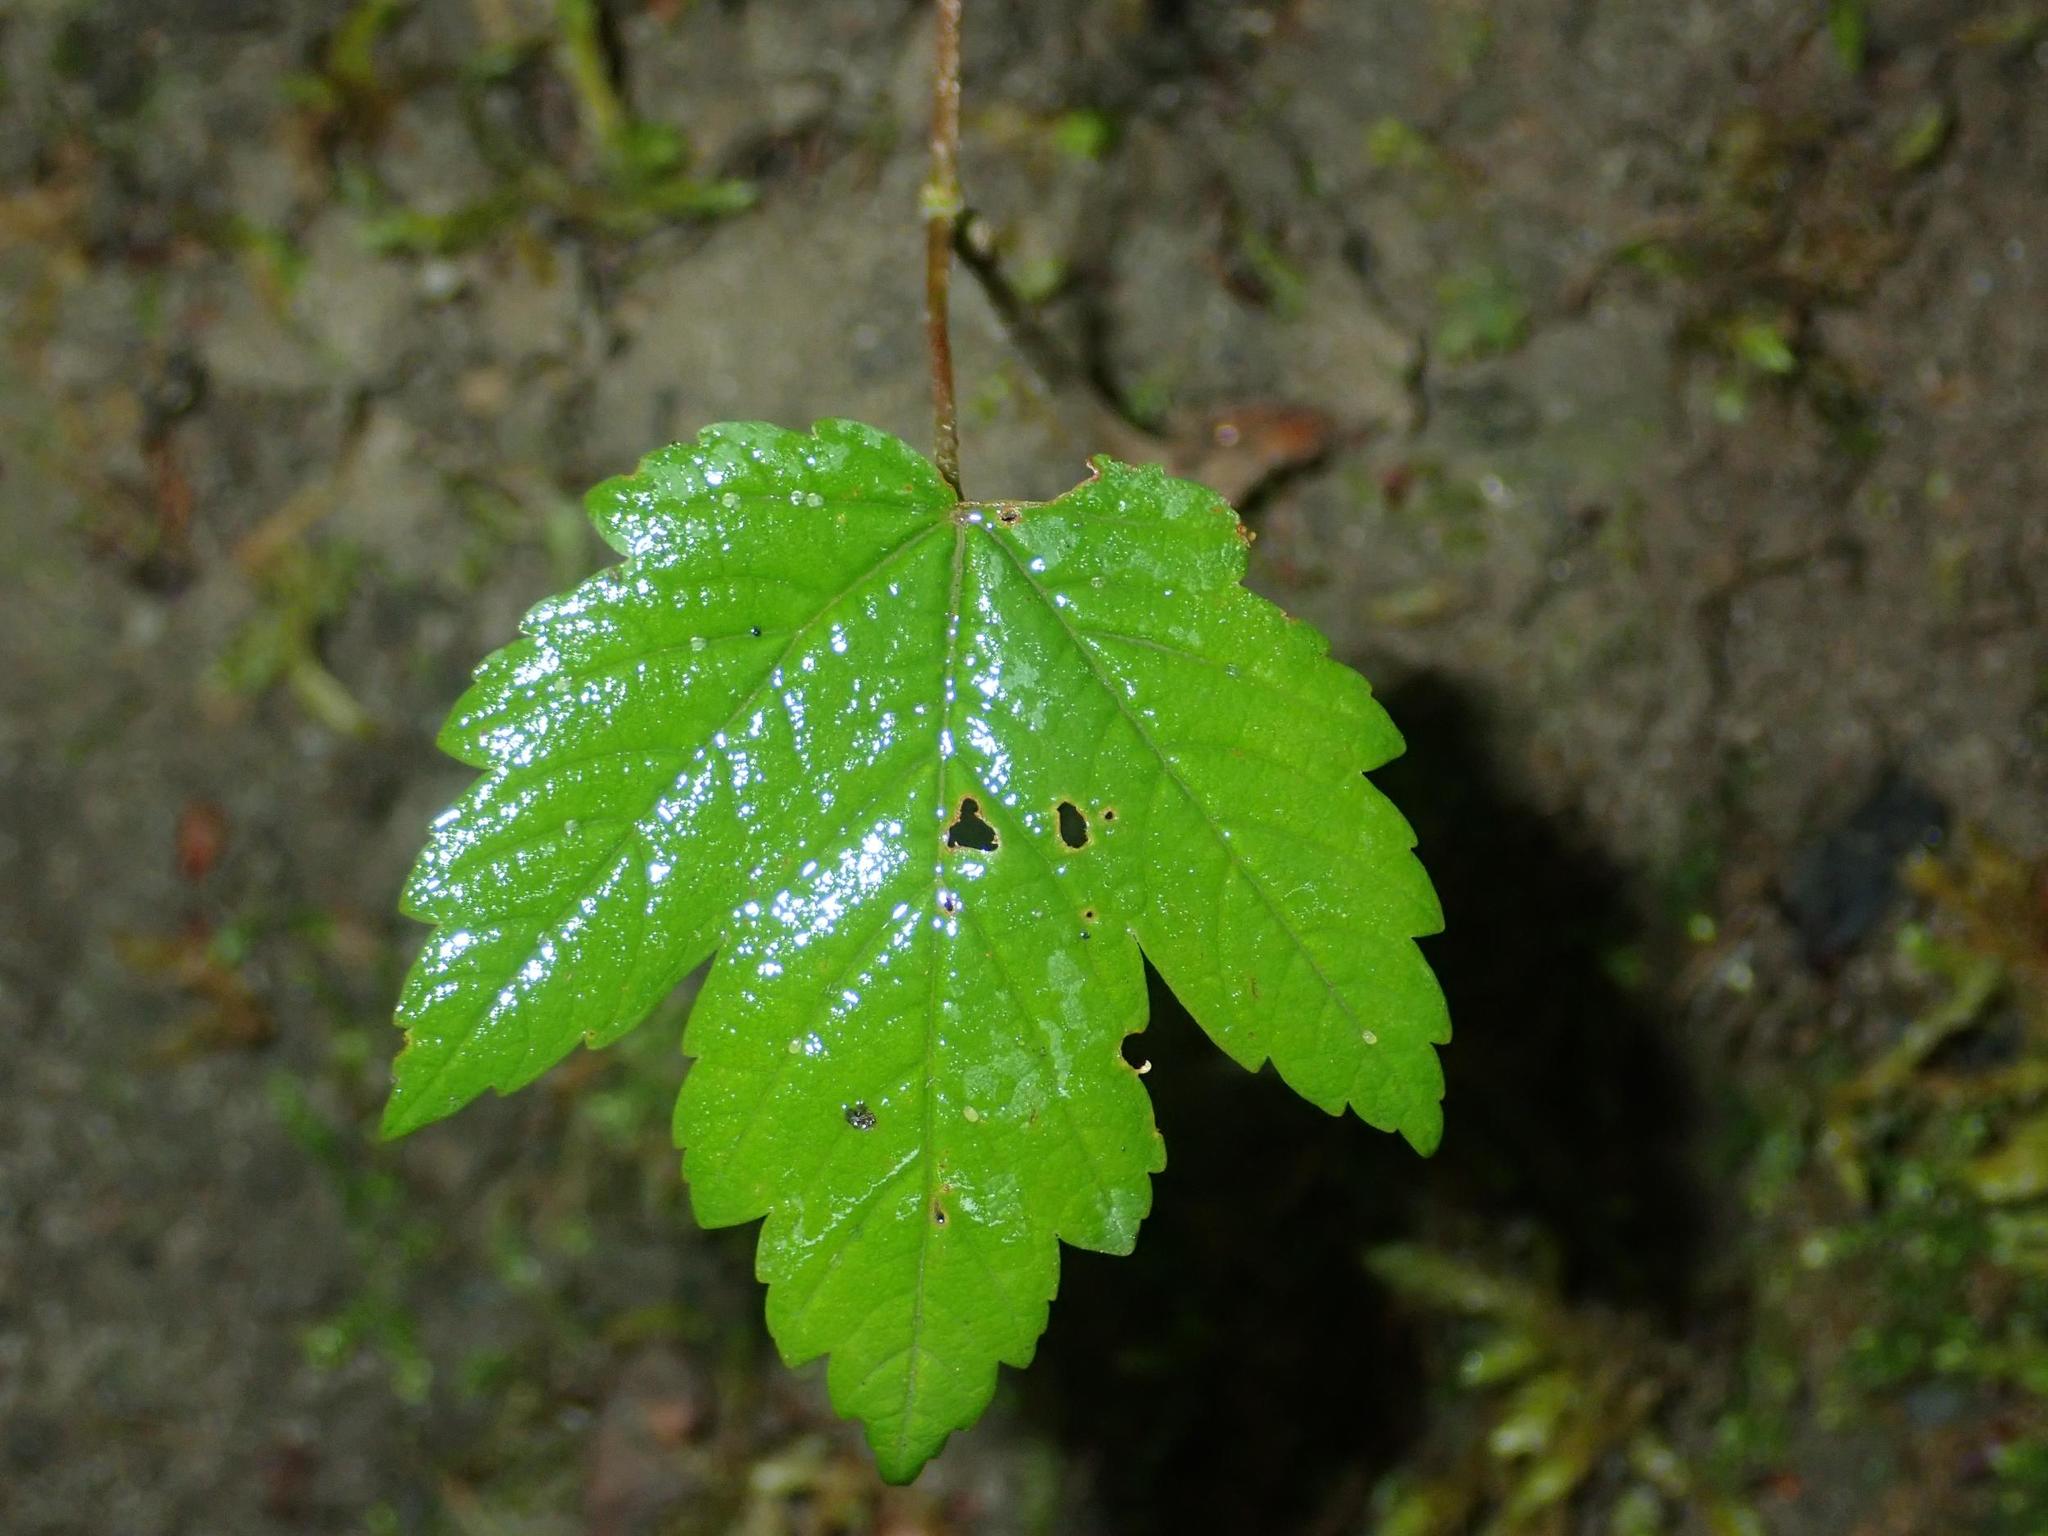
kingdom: Plantae
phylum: Tracheophyta
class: Magnoliopsida
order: Sapindales
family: Sapindaceae
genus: Acer
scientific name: Acer pseudoplatanus
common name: Sycamore
